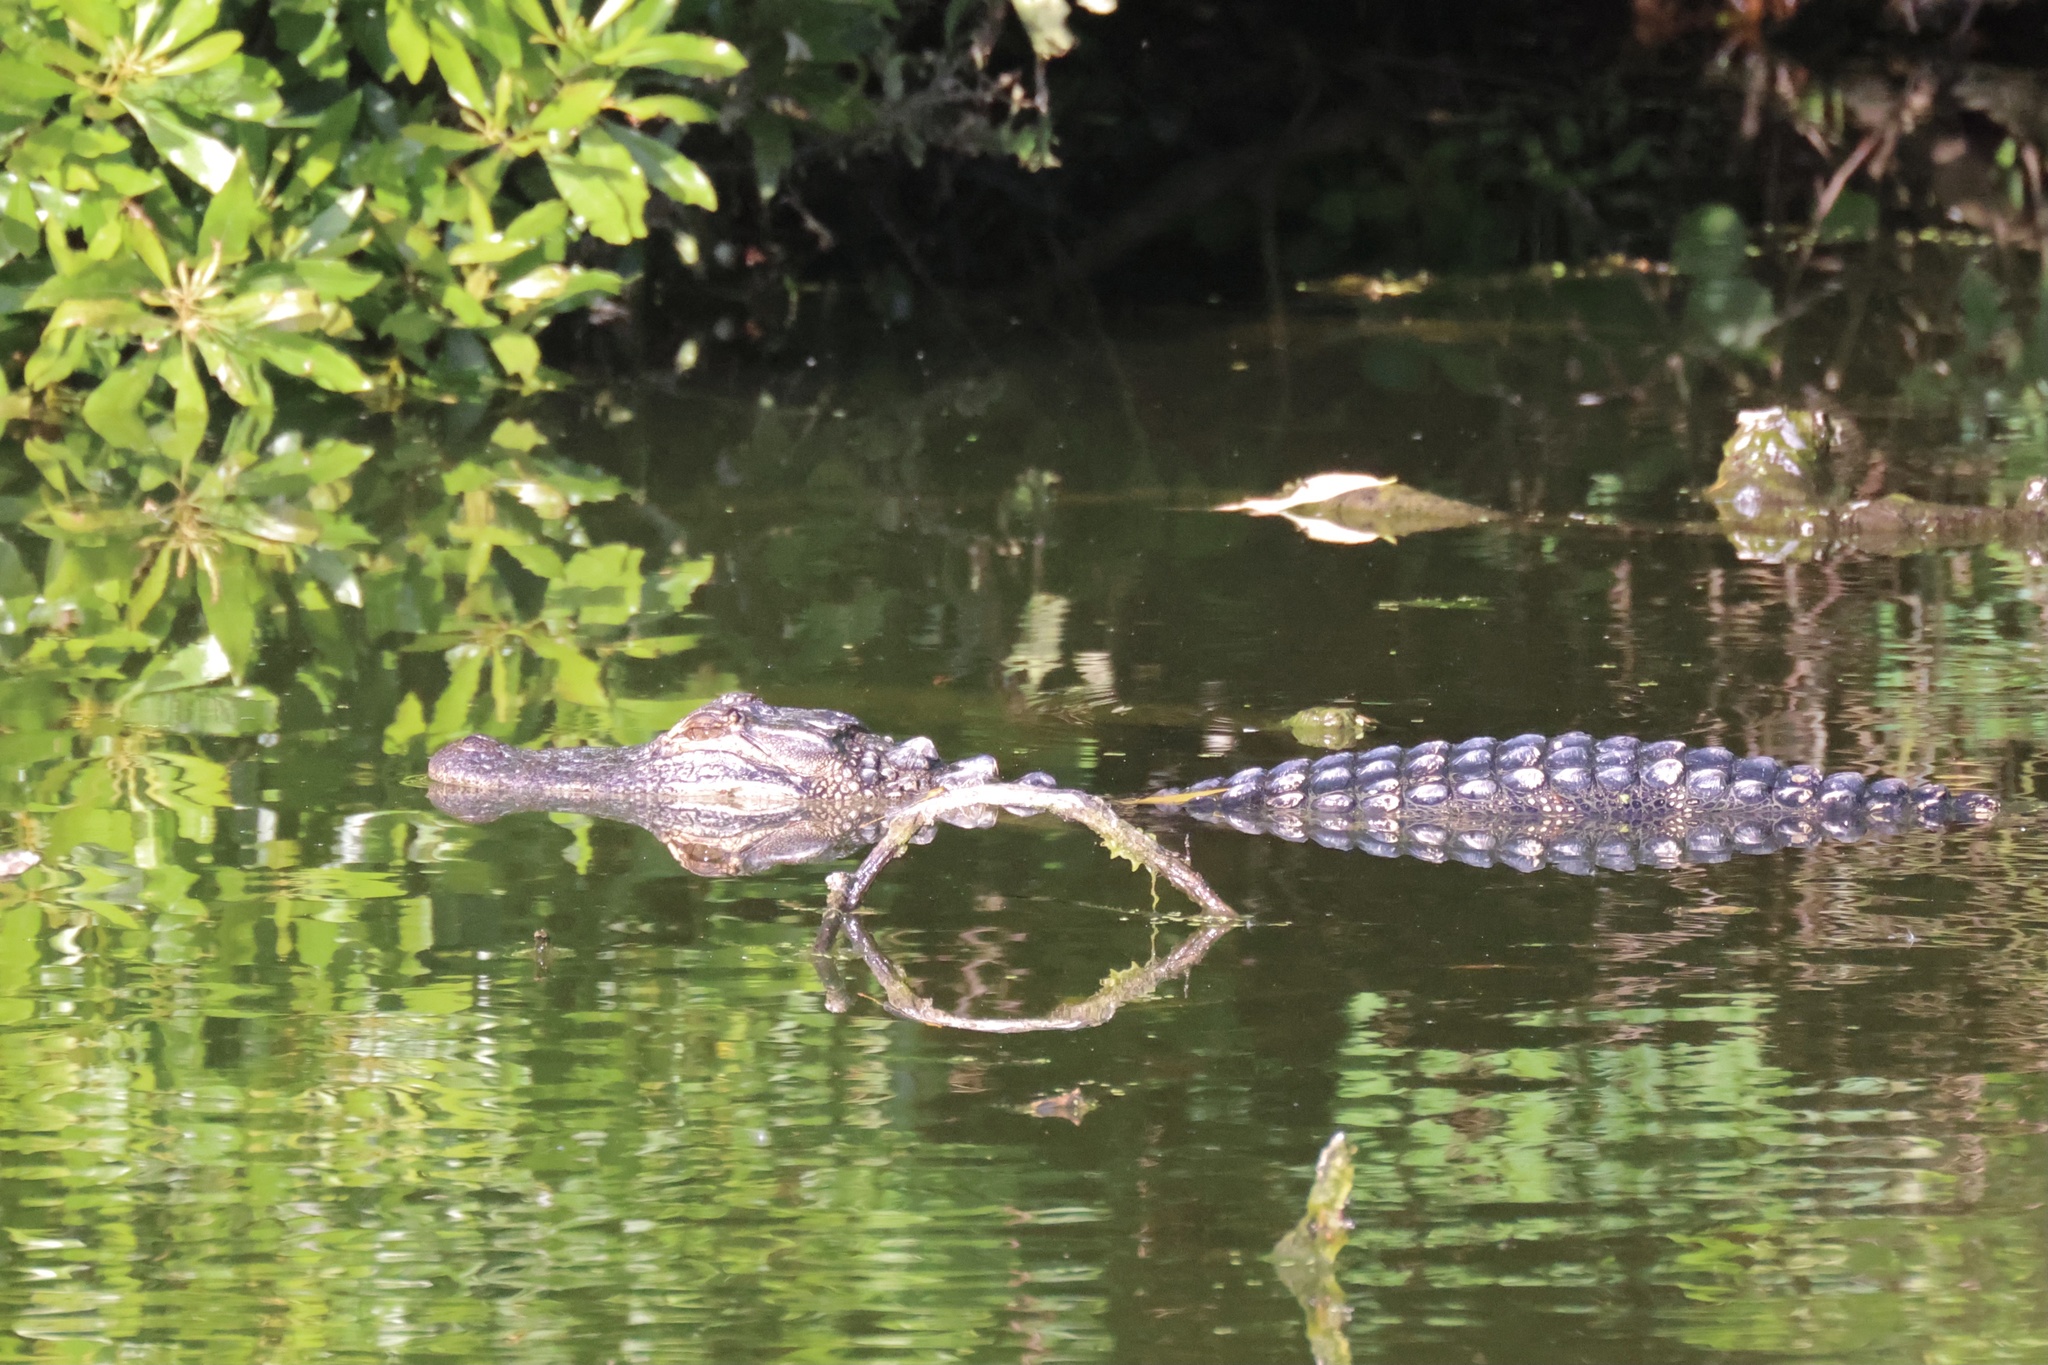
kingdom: Animalia
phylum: Chordata
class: Crocodylia
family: Alligatoridae
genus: Alligator
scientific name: Alligator mississippiensis
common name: American alligator
